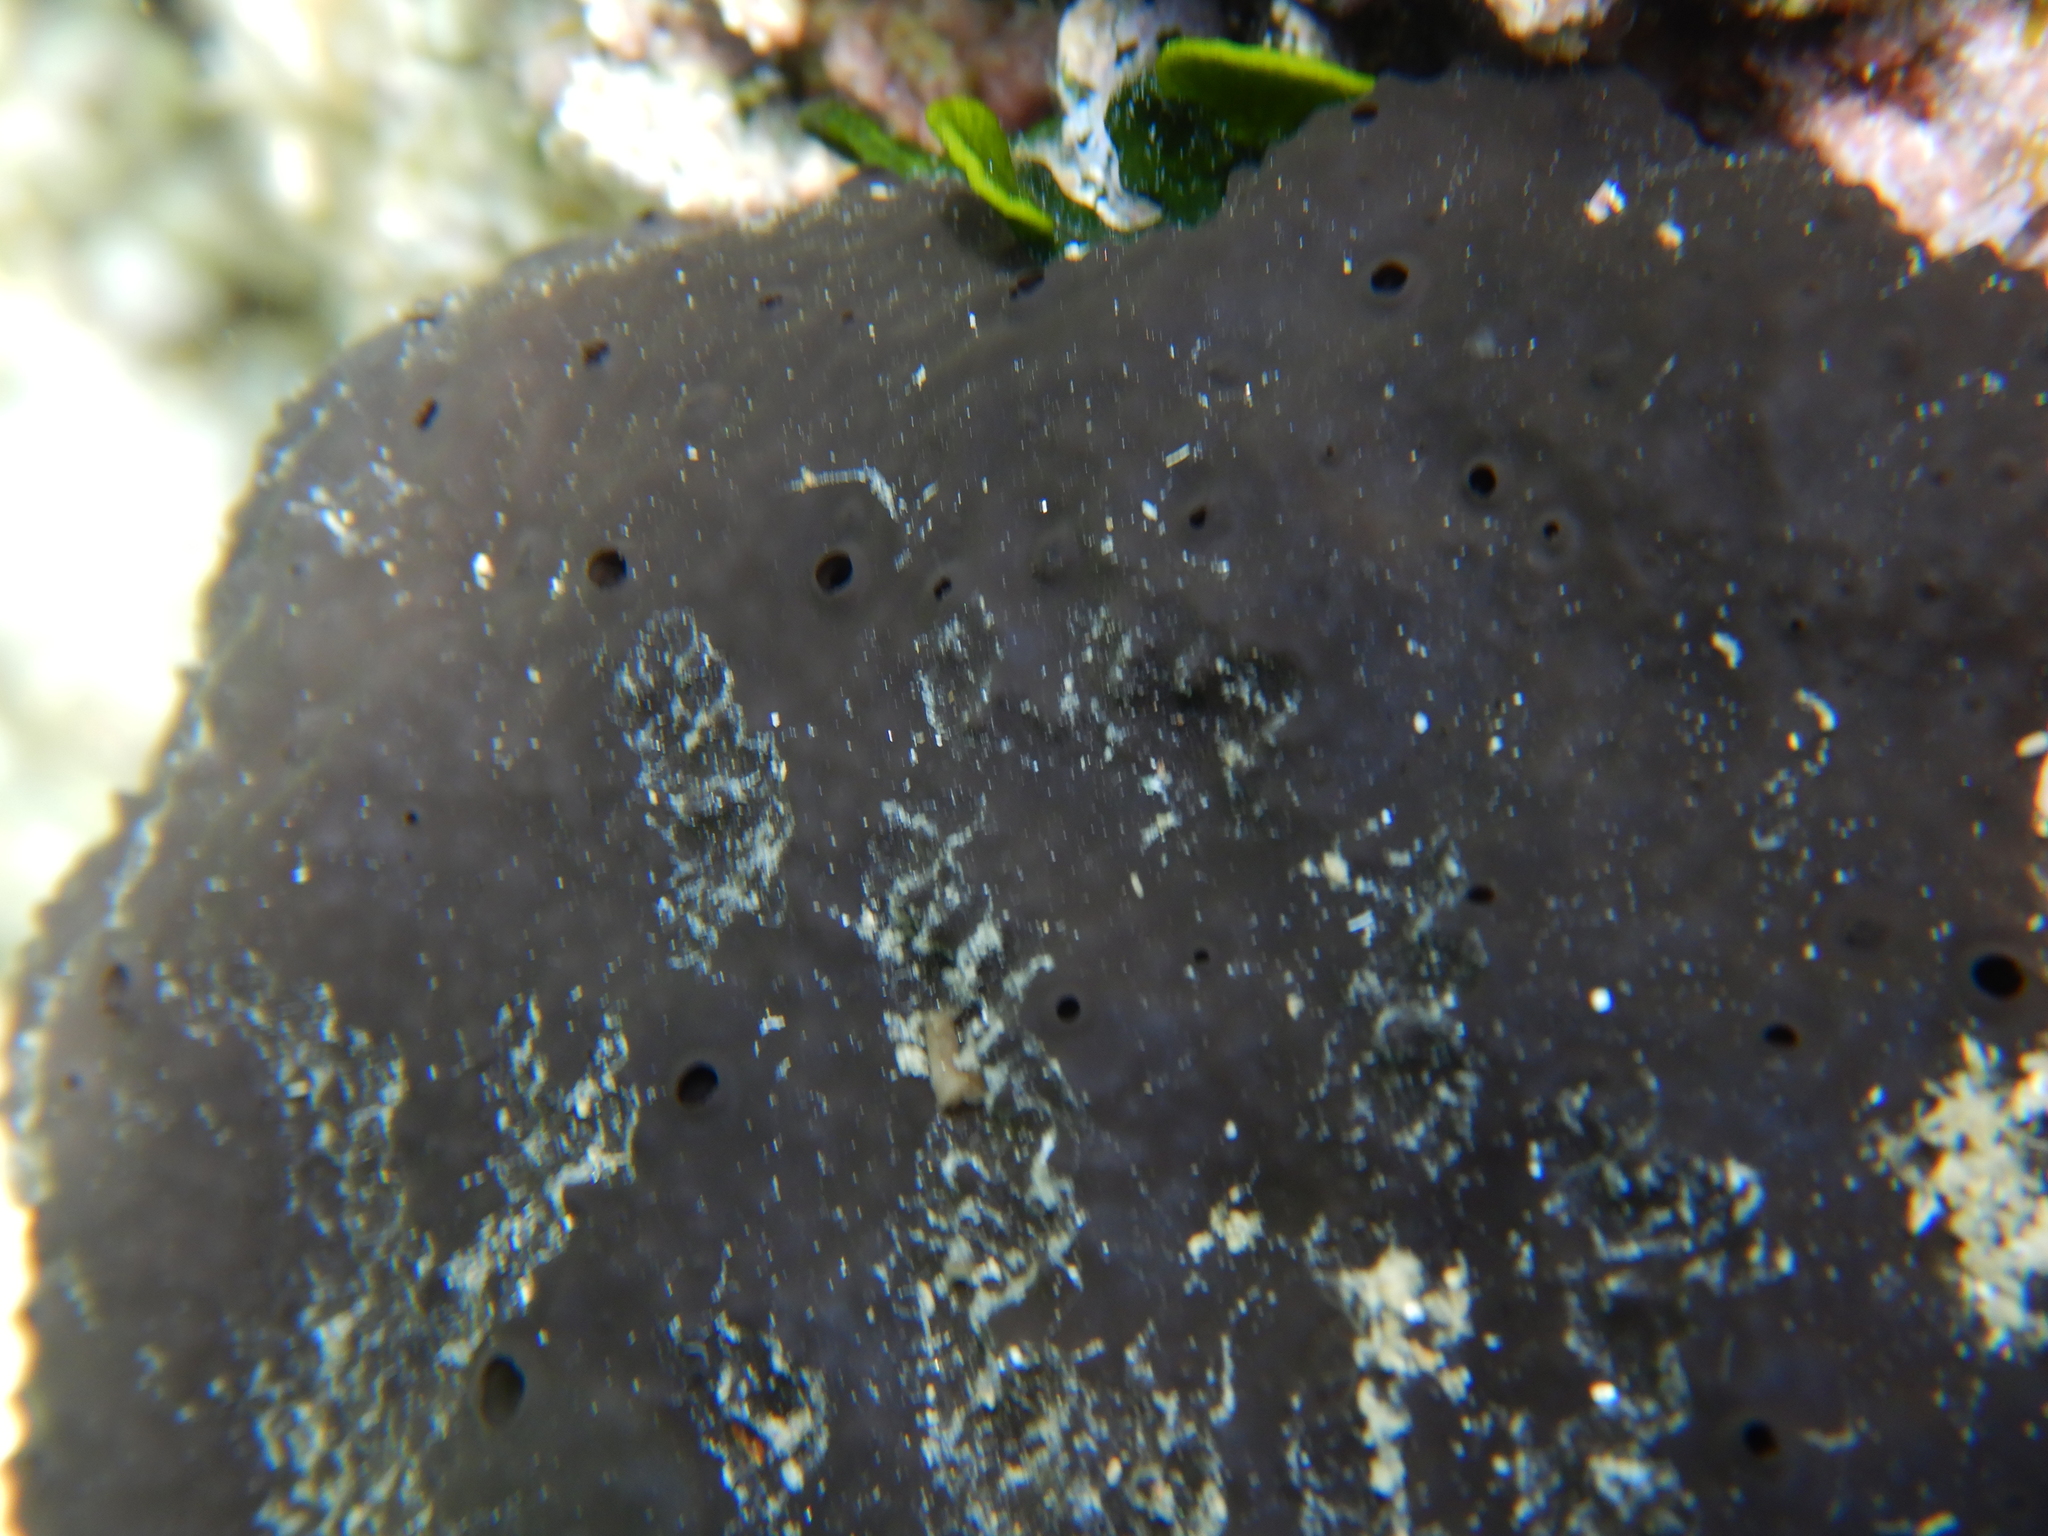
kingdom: Animalia
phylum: Porifera
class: Demospongiae
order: Dictyoceratida
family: Irciniidae
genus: Sarcotragus
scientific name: Sarcotragus spinosulus
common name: Black leather sponge
